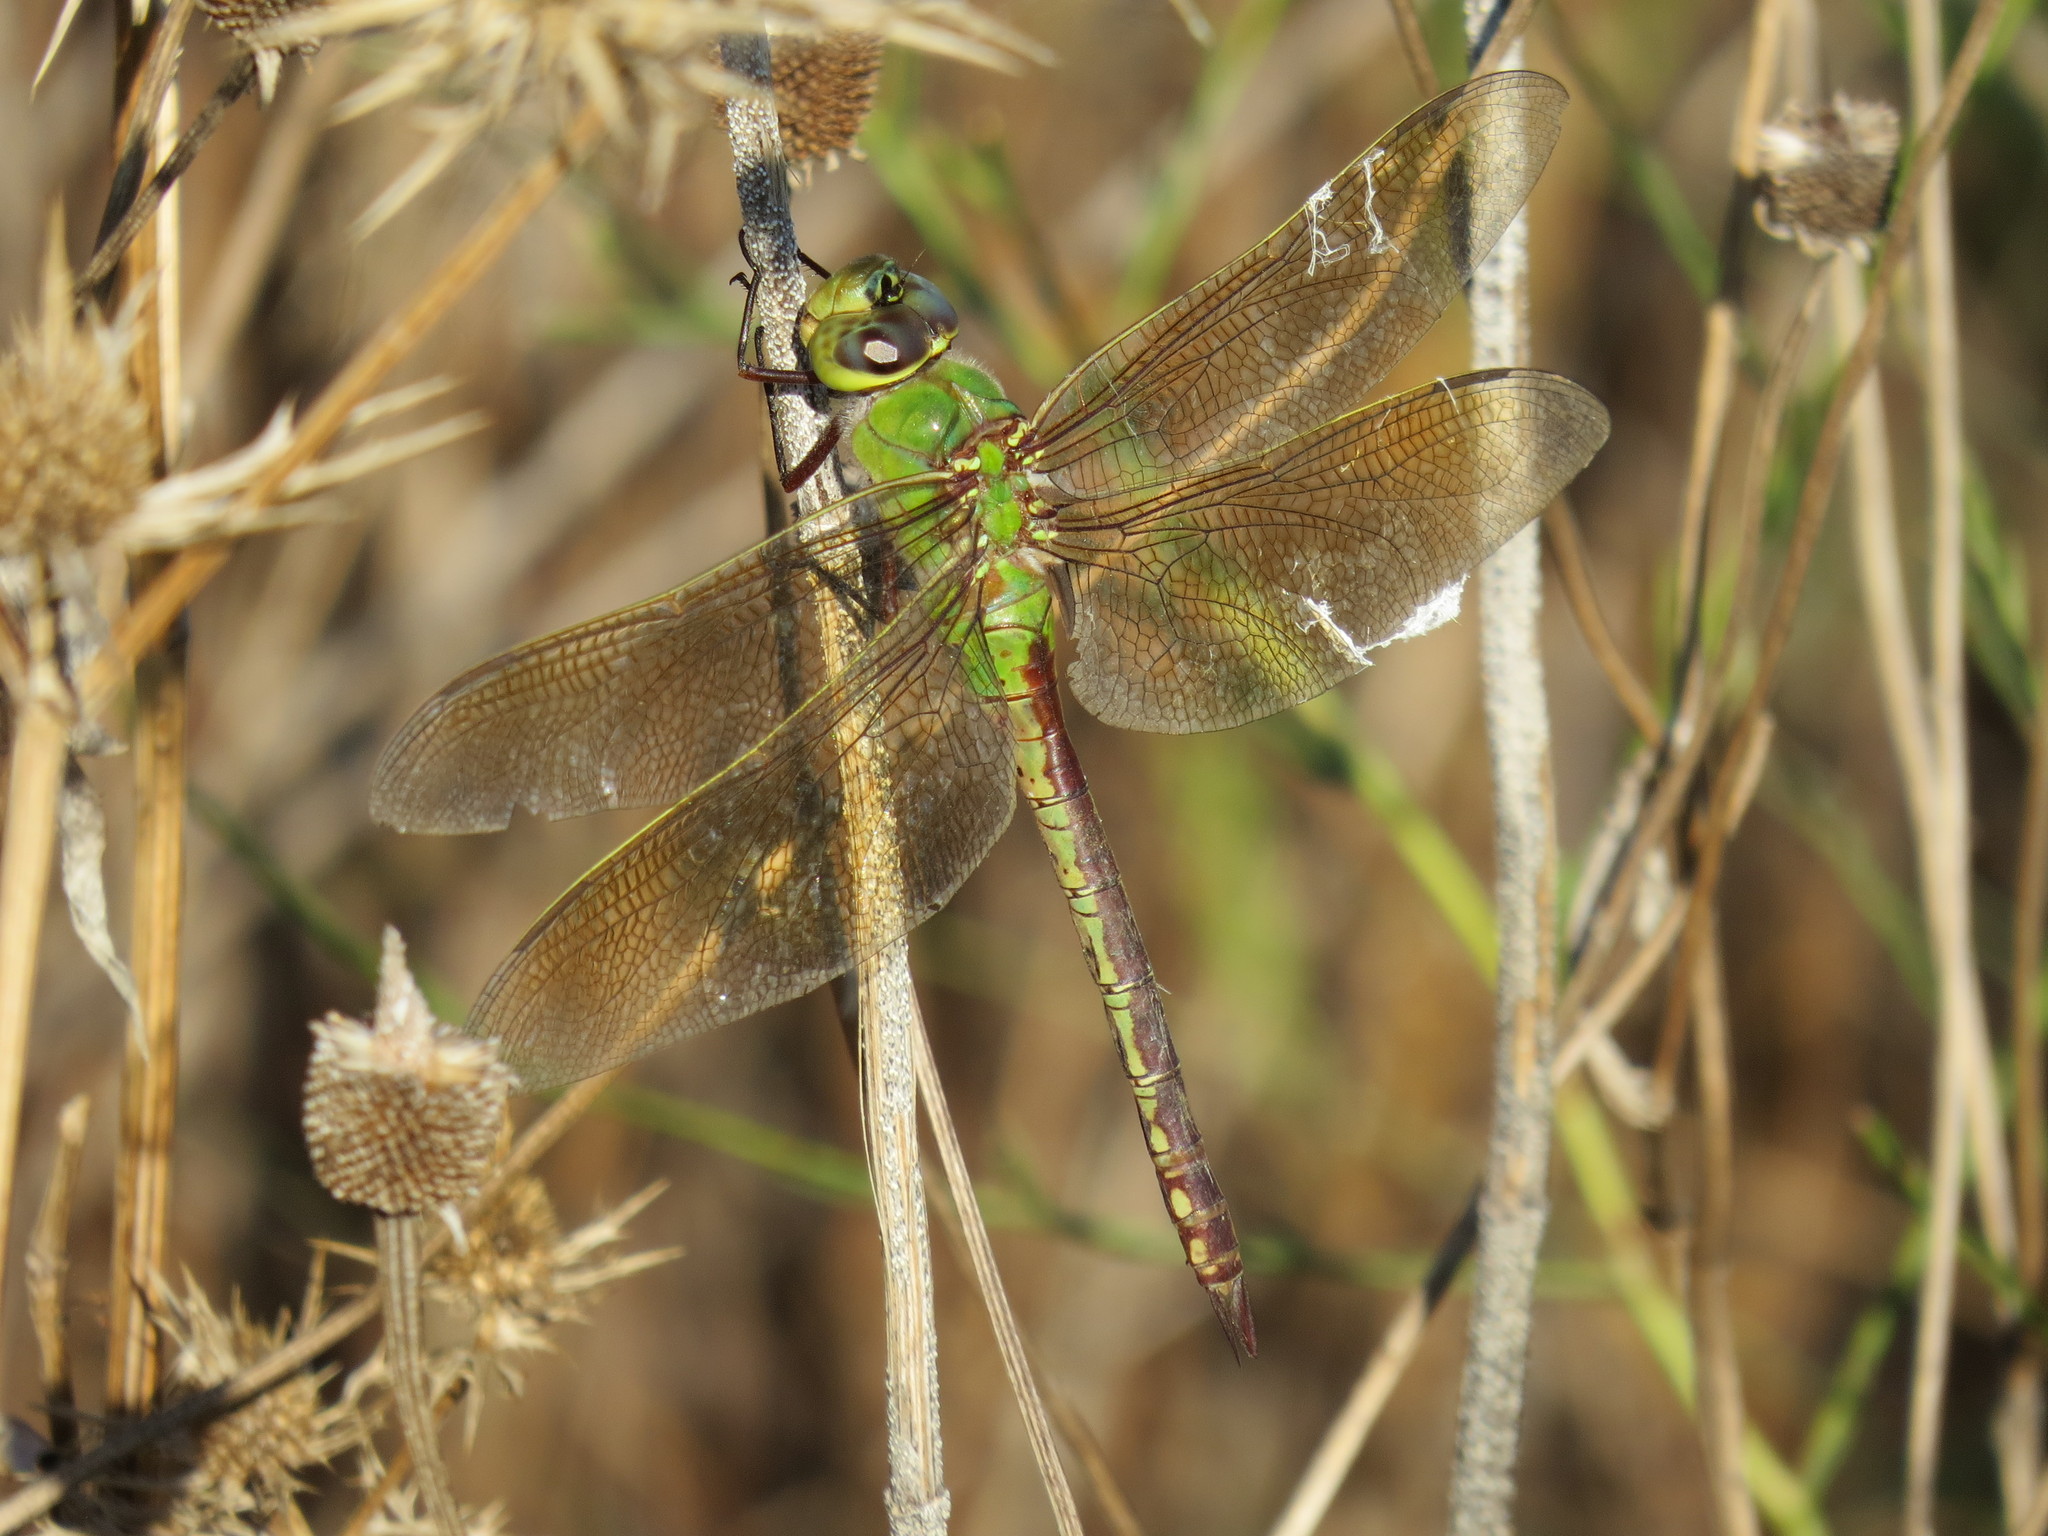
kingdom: Animalia
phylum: Arthropoda
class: Insecta
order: Odonata
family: Aeshnidae
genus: Anax
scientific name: Anax junius
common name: Common green darner
